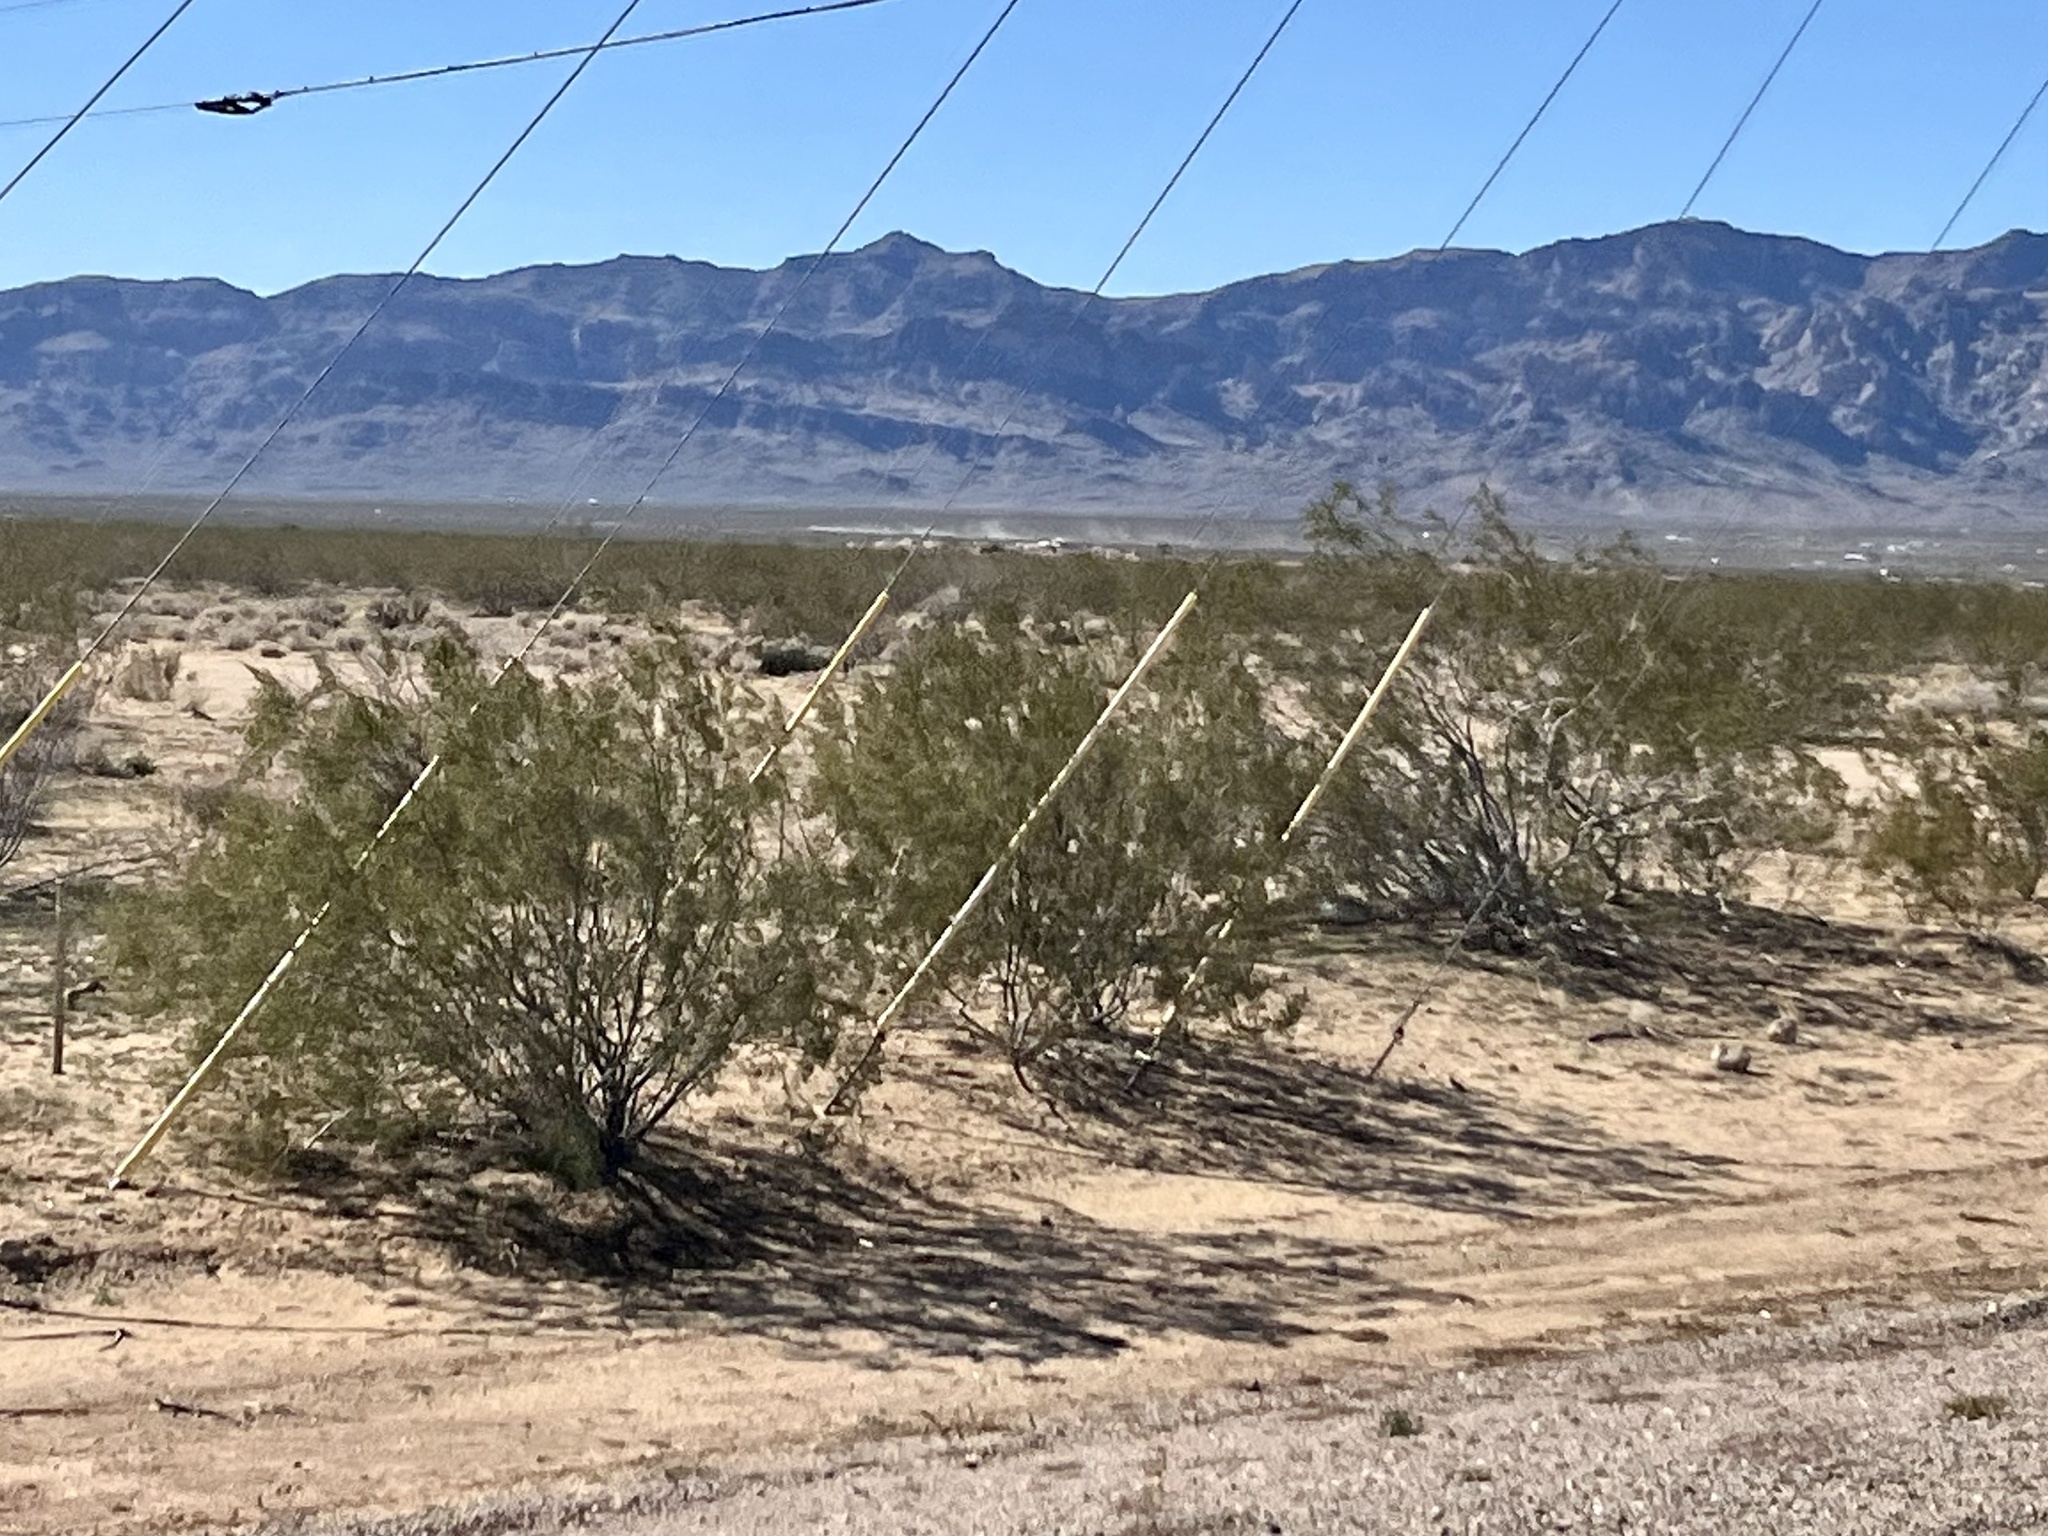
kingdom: Plantae
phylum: Tracheophyta
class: Magnoliopsida
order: Zygophyllales
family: Zygophyllaceae
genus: Larrea
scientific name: Larrea tridentata
